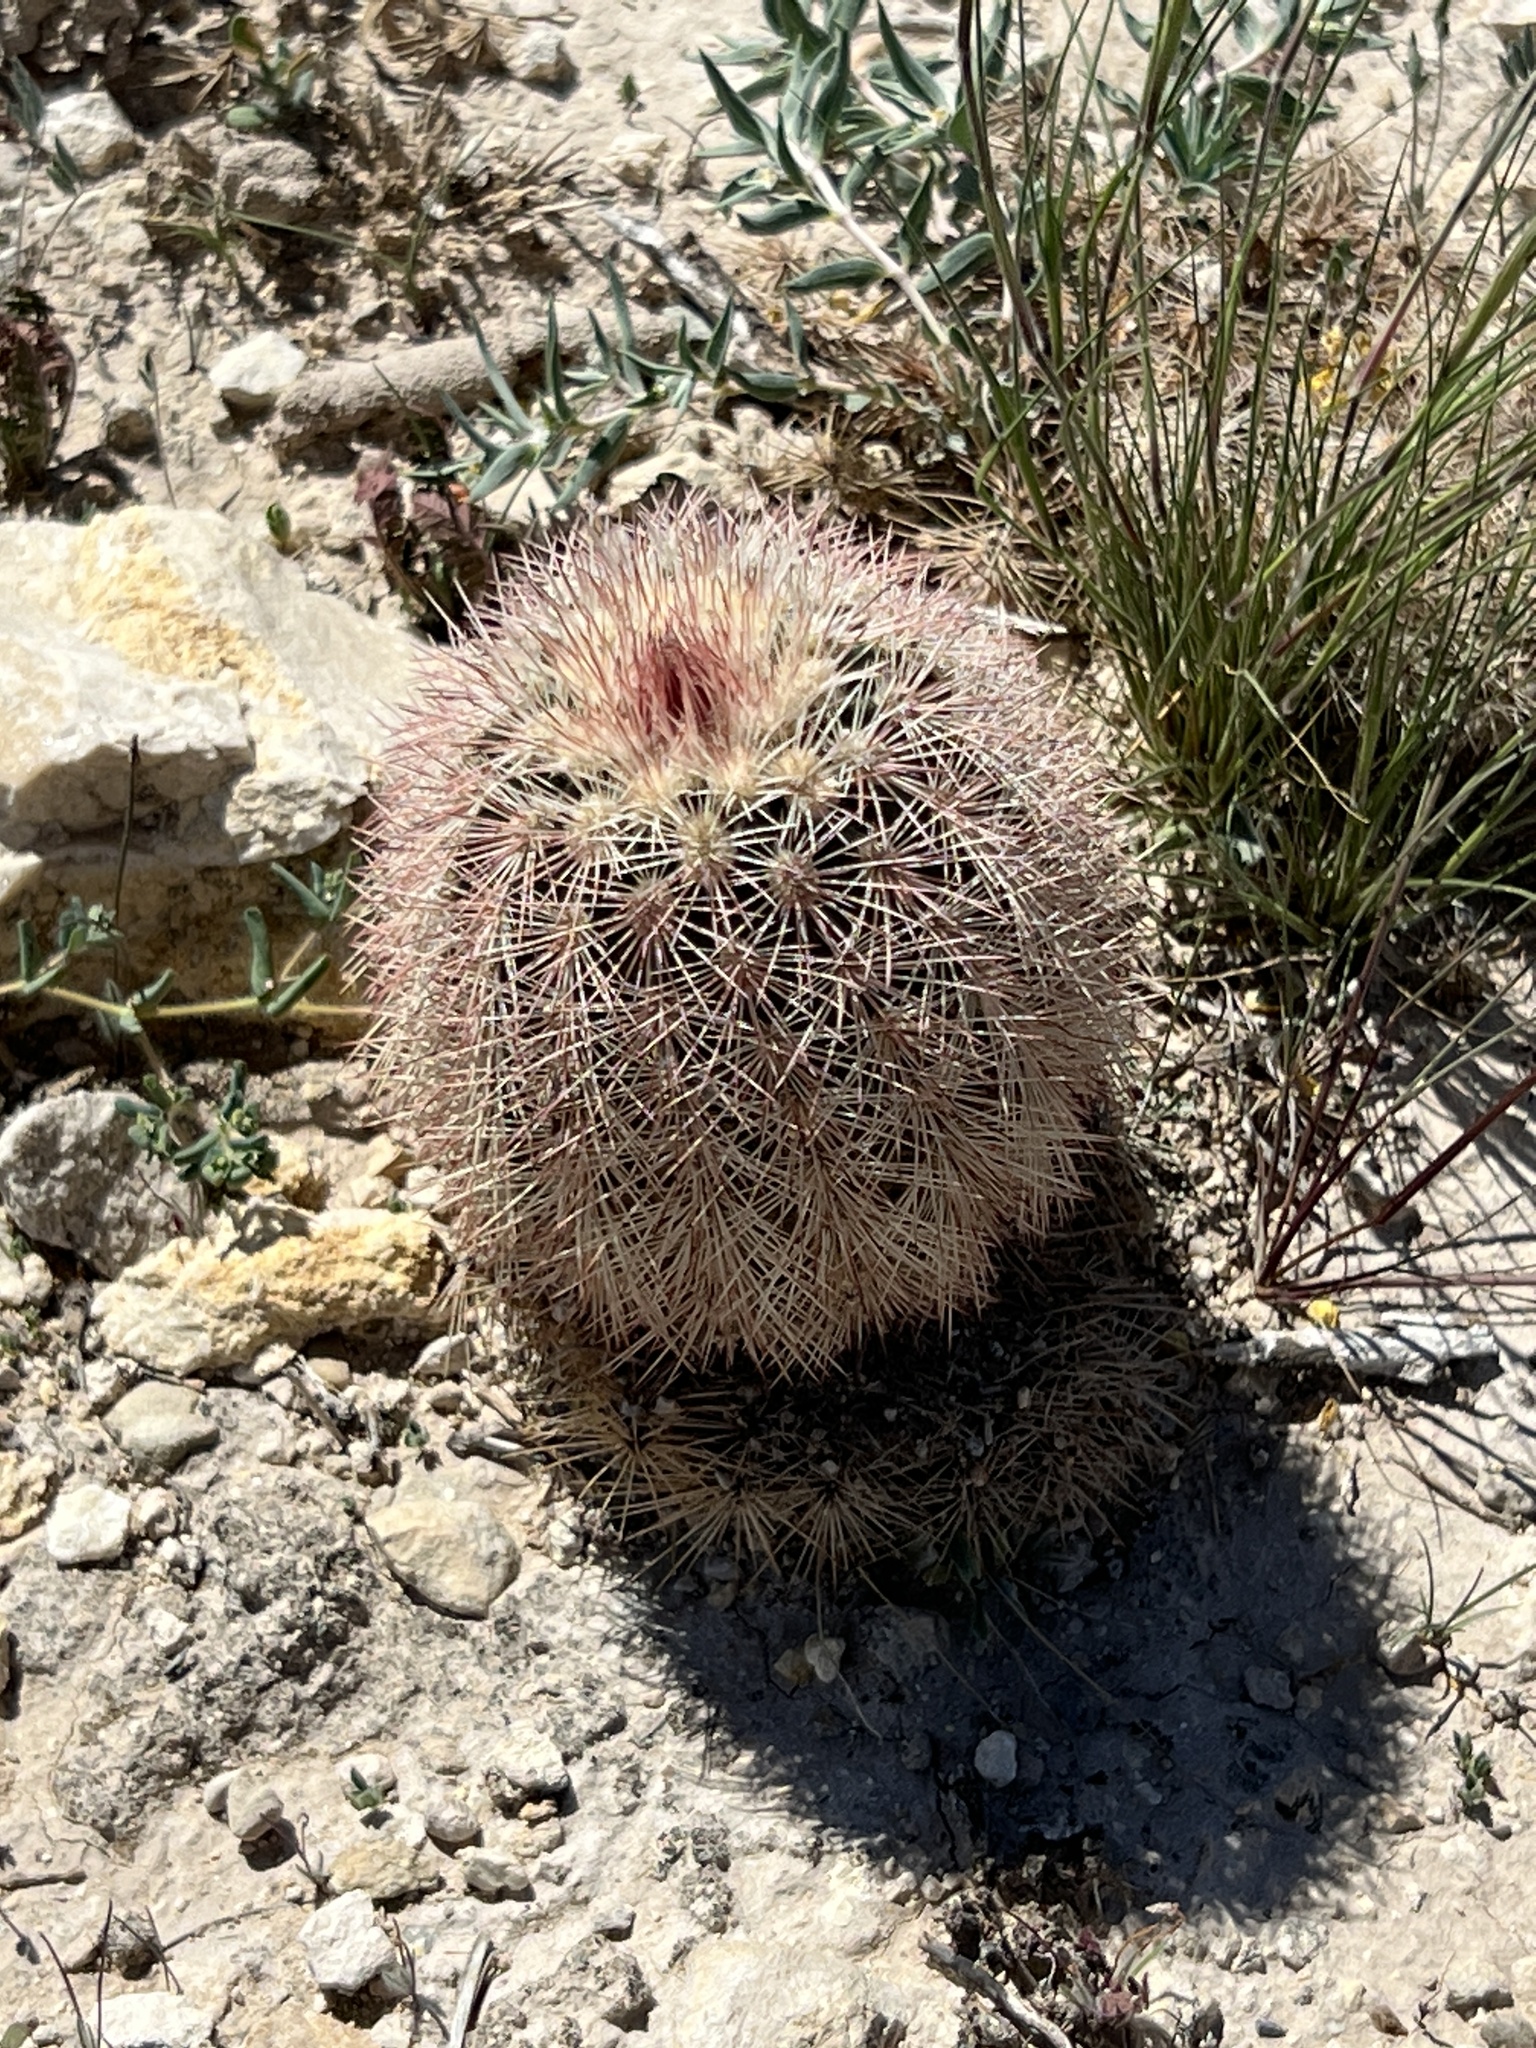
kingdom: Plantae
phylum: Tracheophyta
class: Magnoliopsida
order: Caryophyllales
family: Cactaceae
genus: Echinocereus
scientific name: Echinocereus dasyacanthus
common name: Spiny hedgehog cactus
